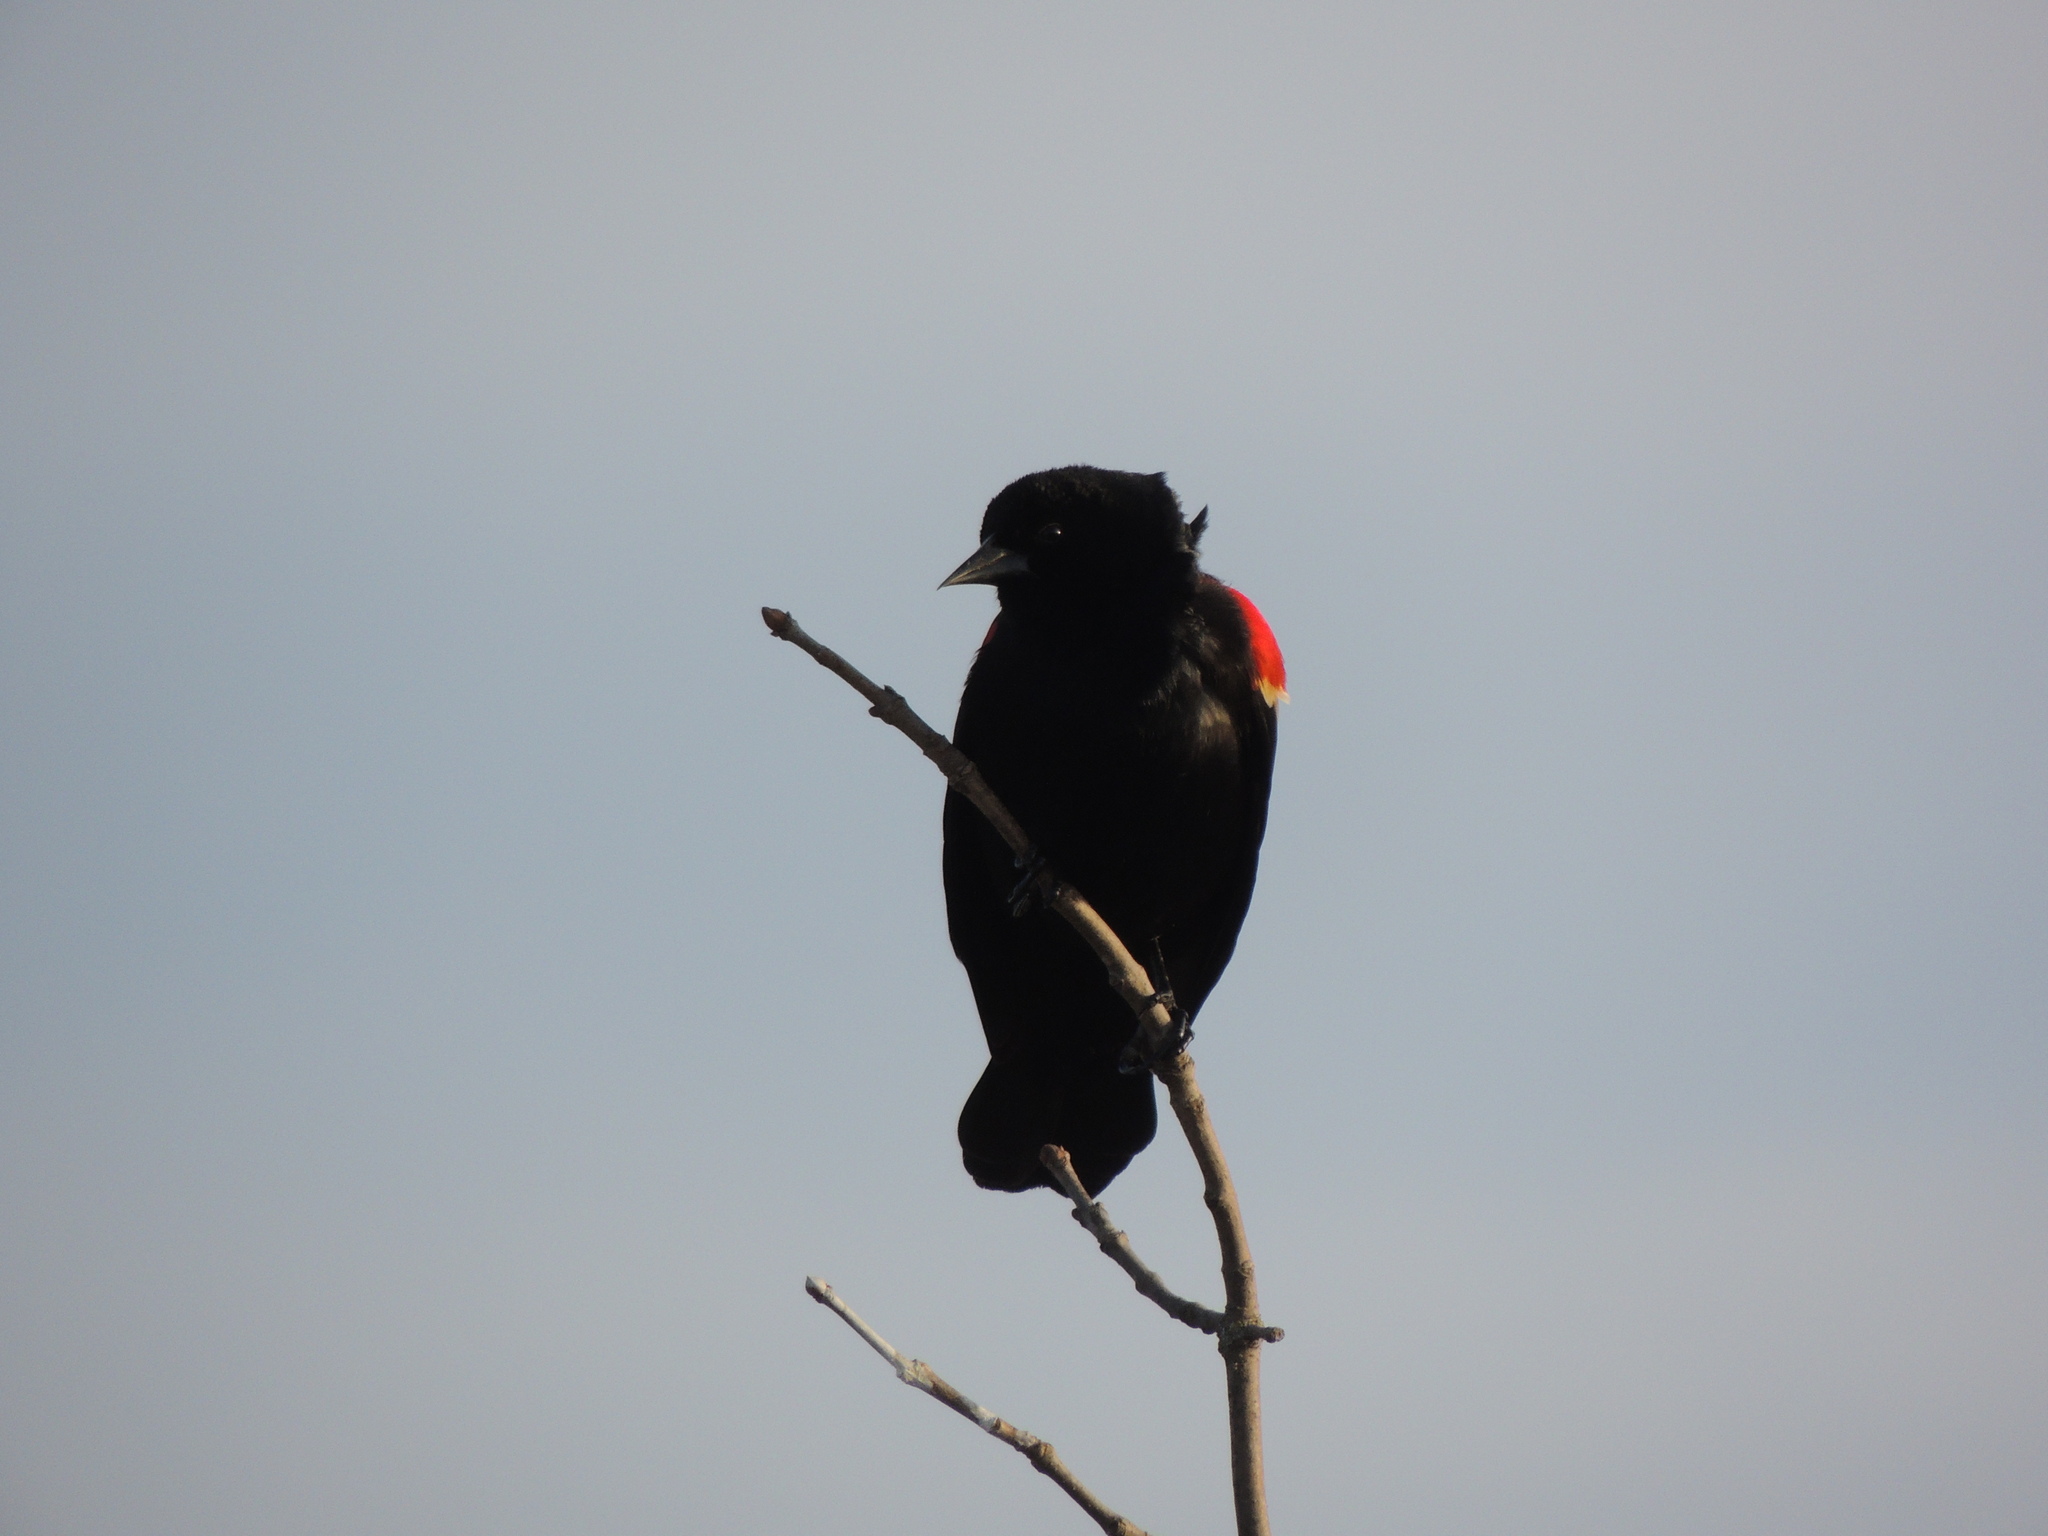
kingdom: Animalia
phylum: Chordata
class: Aves
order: Passeriformes
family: Icteridae
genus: Agelaius
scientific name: Agelaius phoeniceus
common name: Red-winged blackbird
